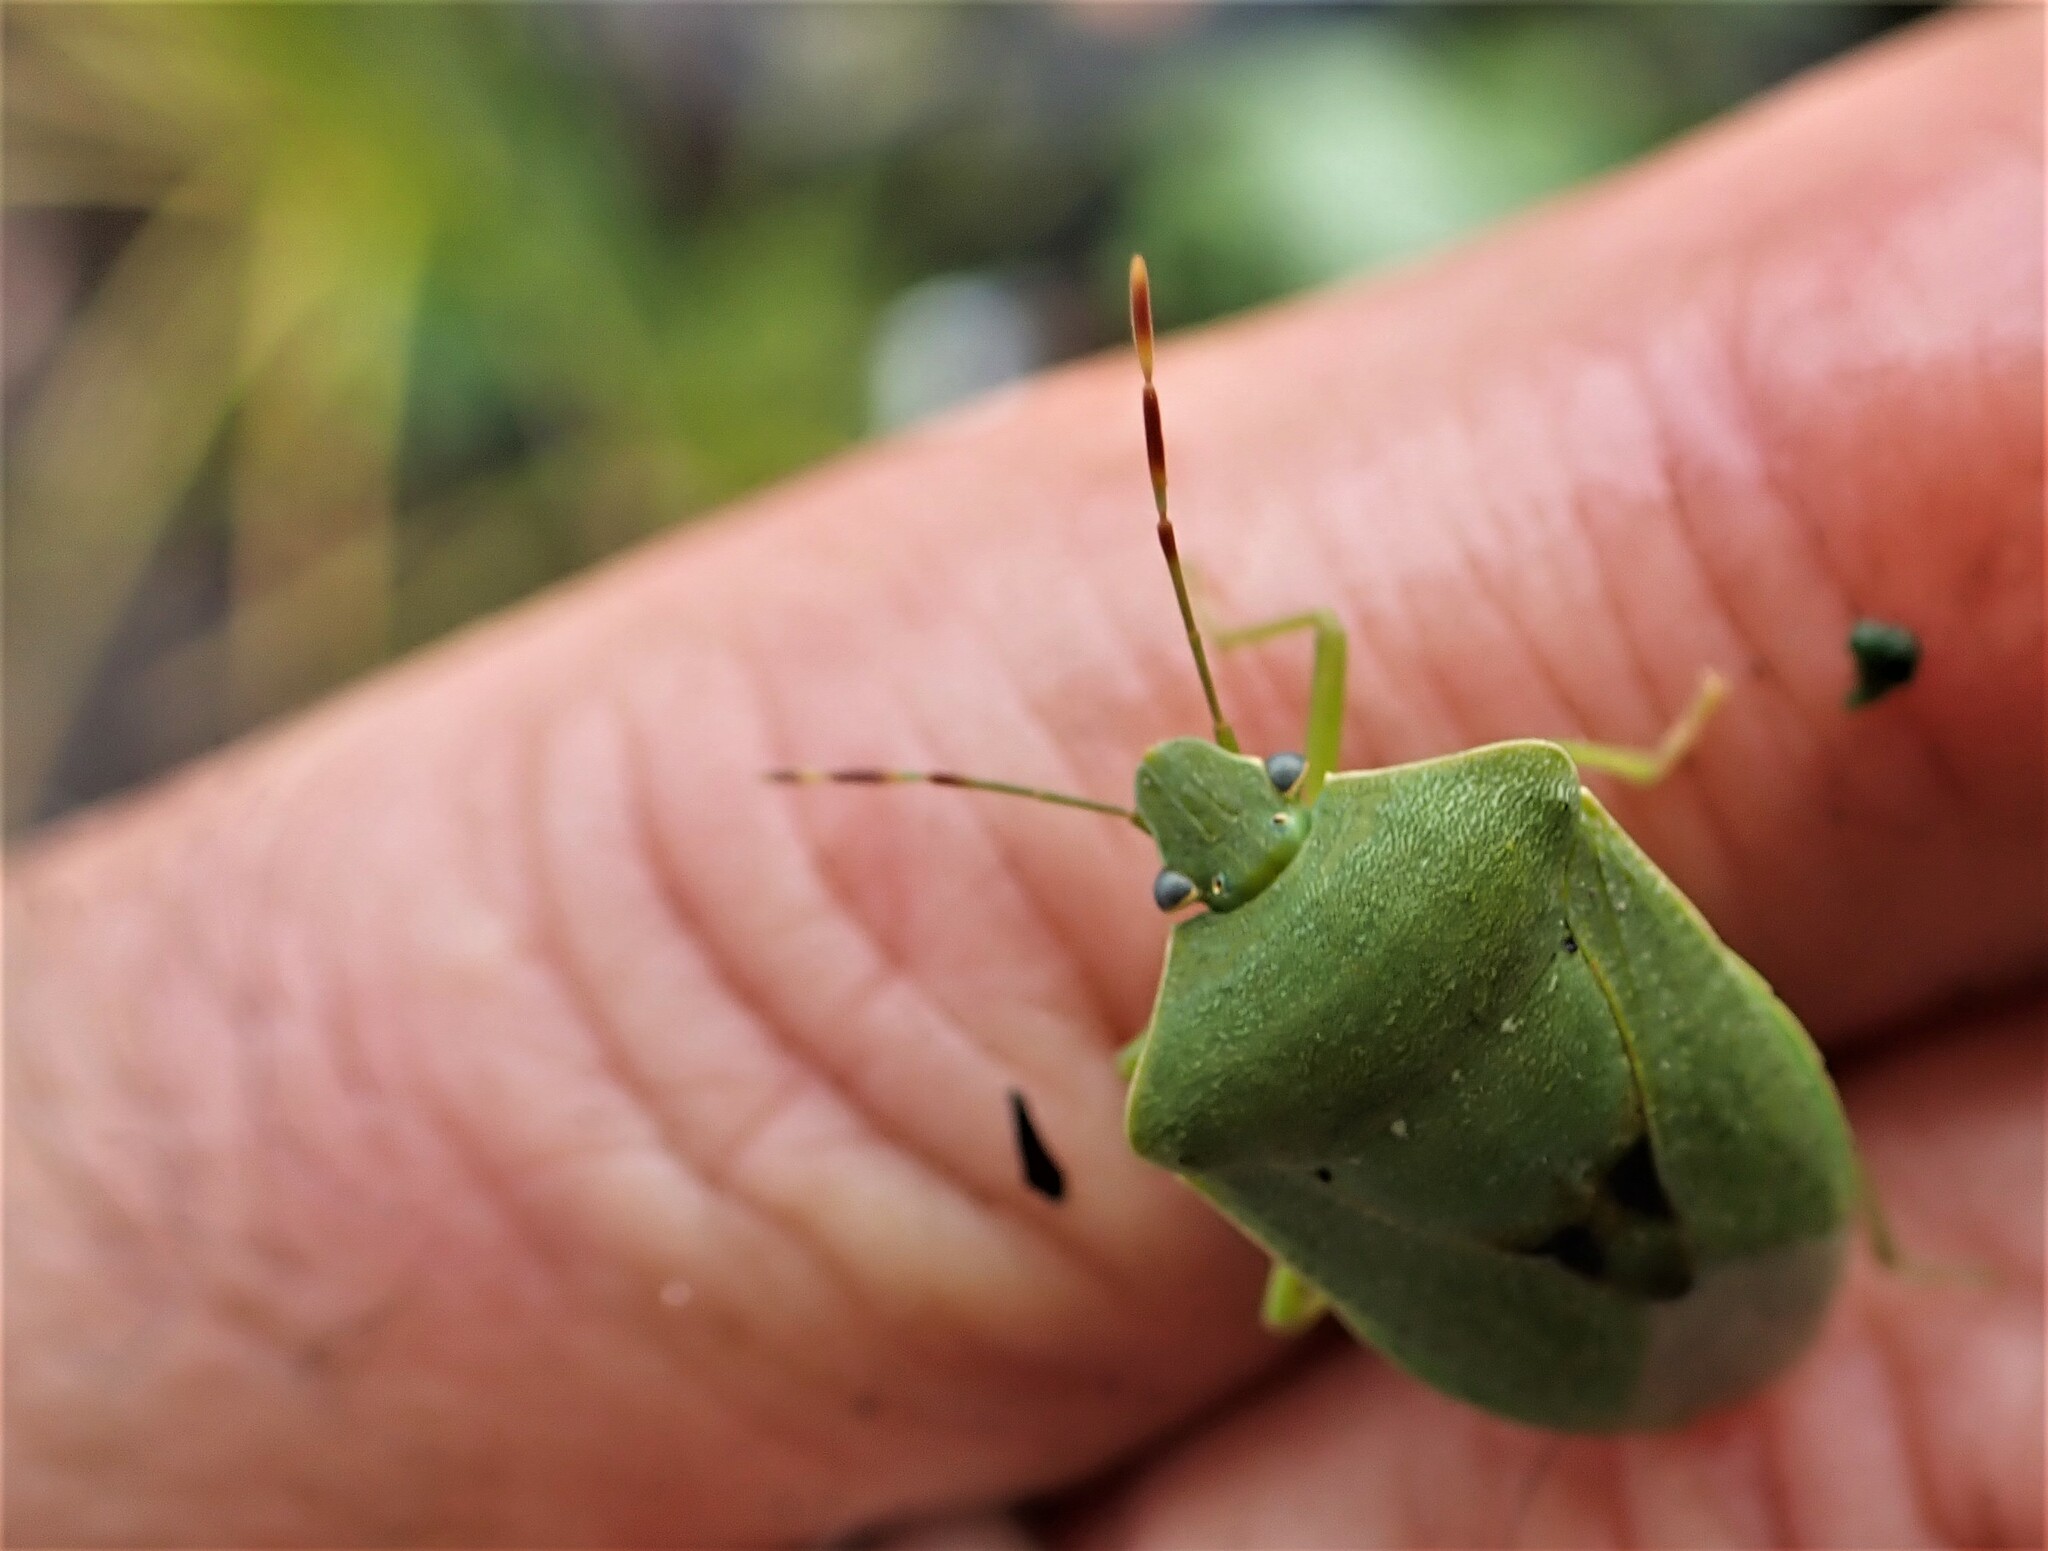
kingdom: Animalia
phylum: Arthropoda
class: Insecta
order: Hemiptera
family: Pentatomidae
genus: Nezara
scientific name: Nezara viridula
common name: Southern green stink bug
